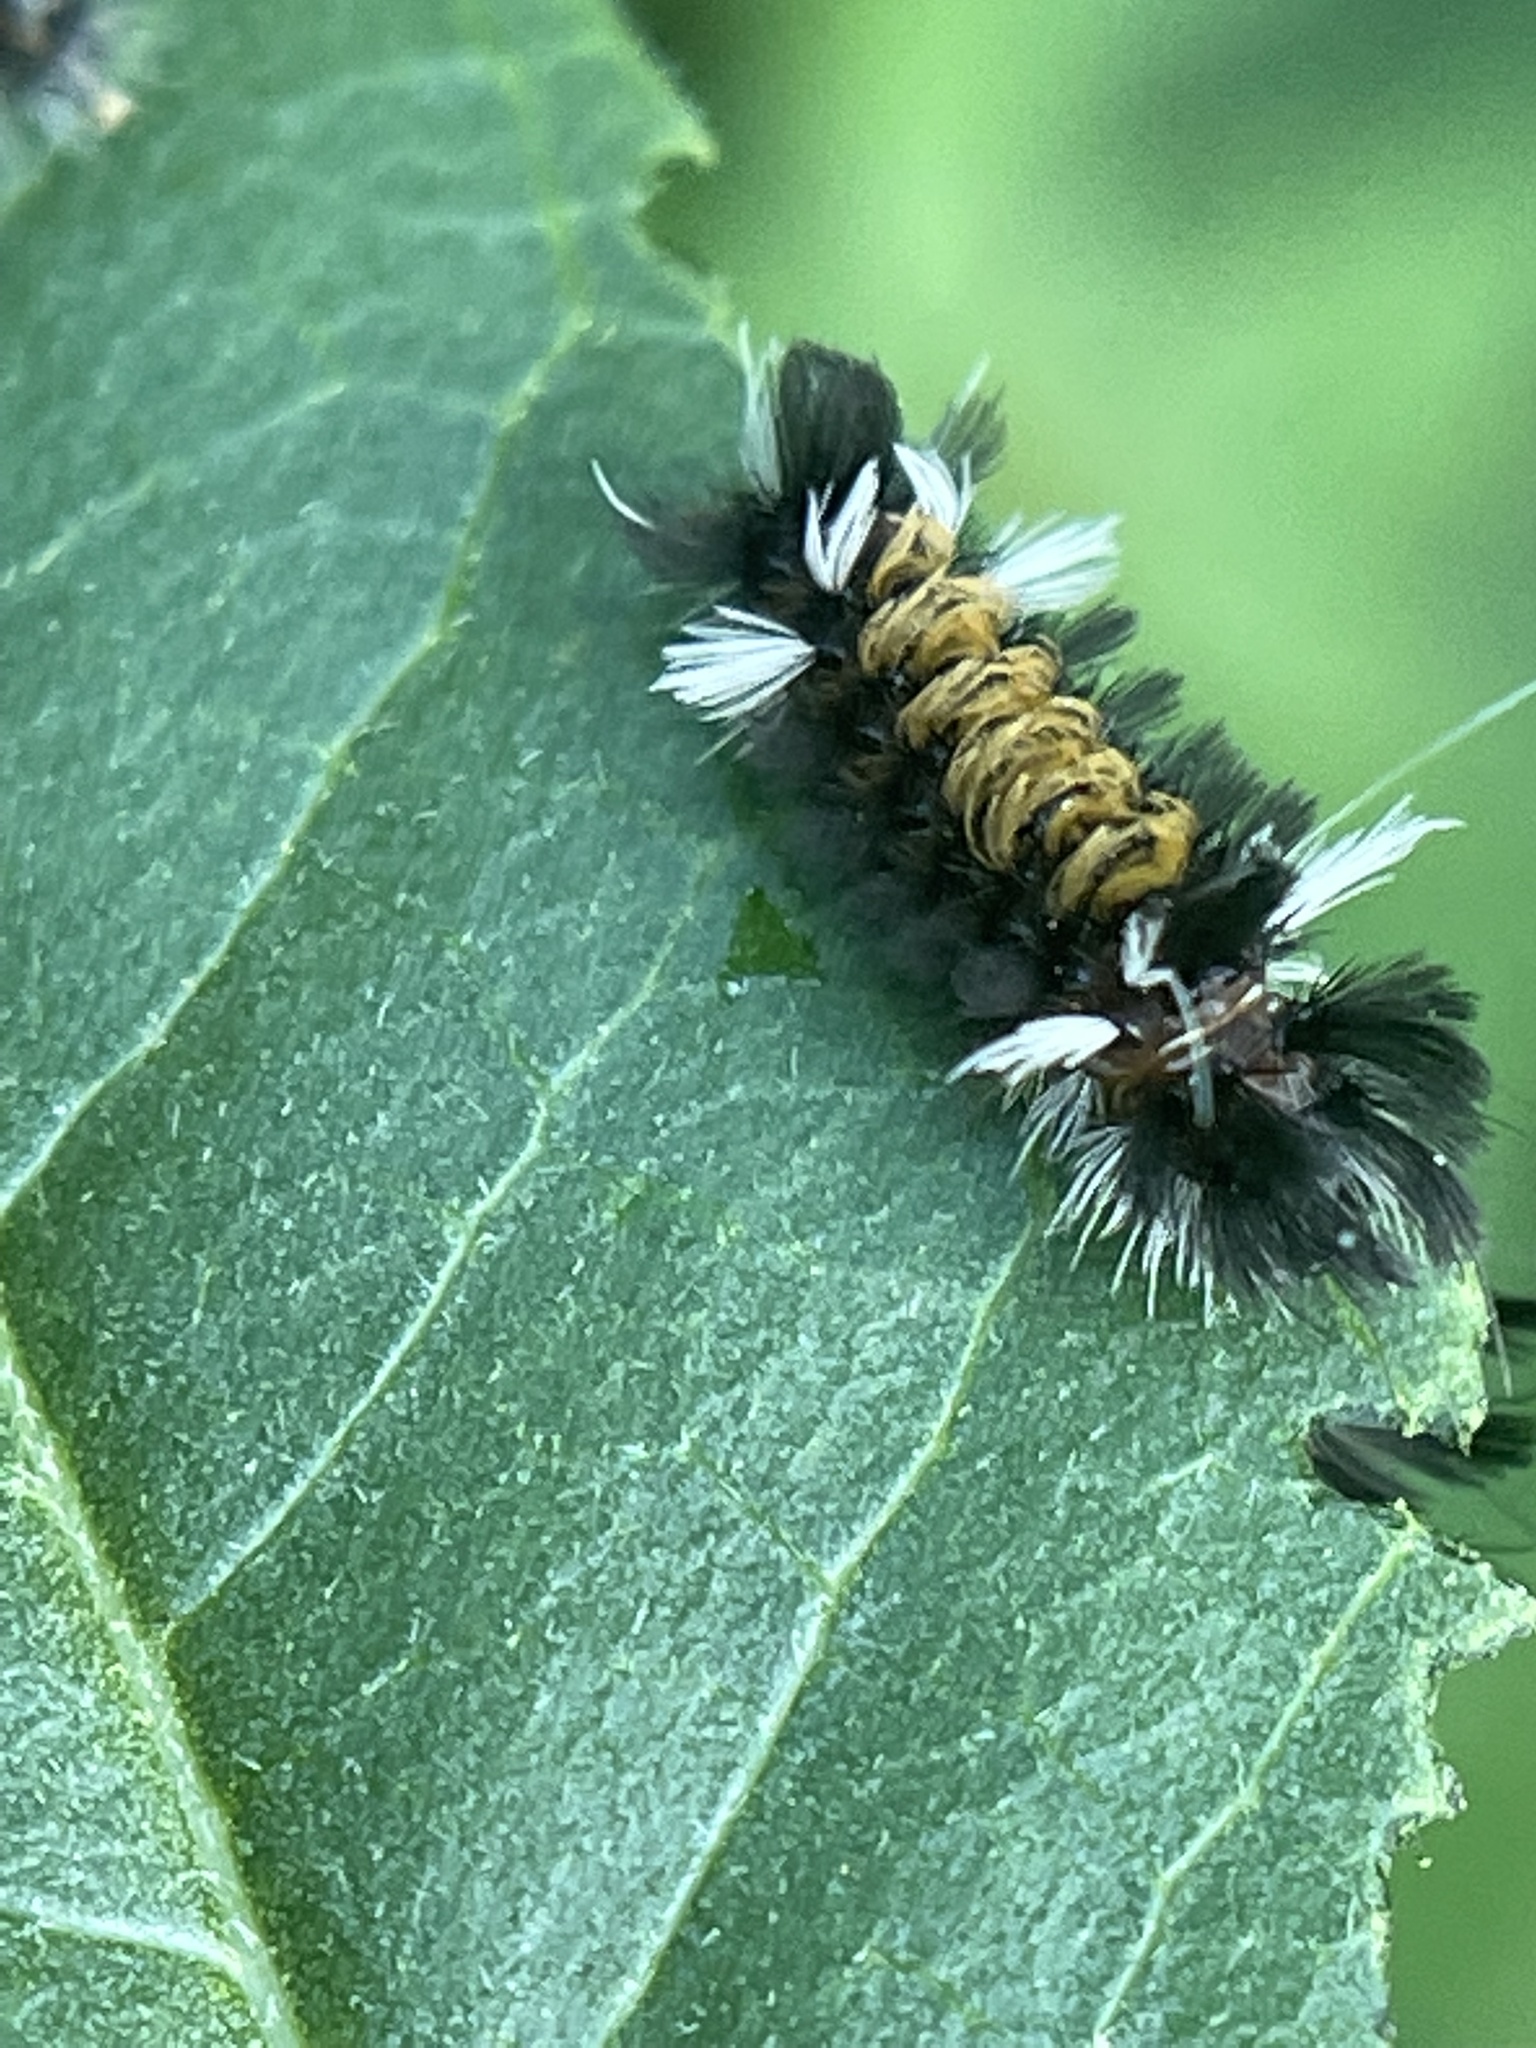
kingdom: Animalia
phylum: Arthropoda
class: Insecta
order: Lepidoptera
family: Erebidae
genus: Euchaetes
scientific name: Euchaetes egle
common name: Milkweed tussock moth
